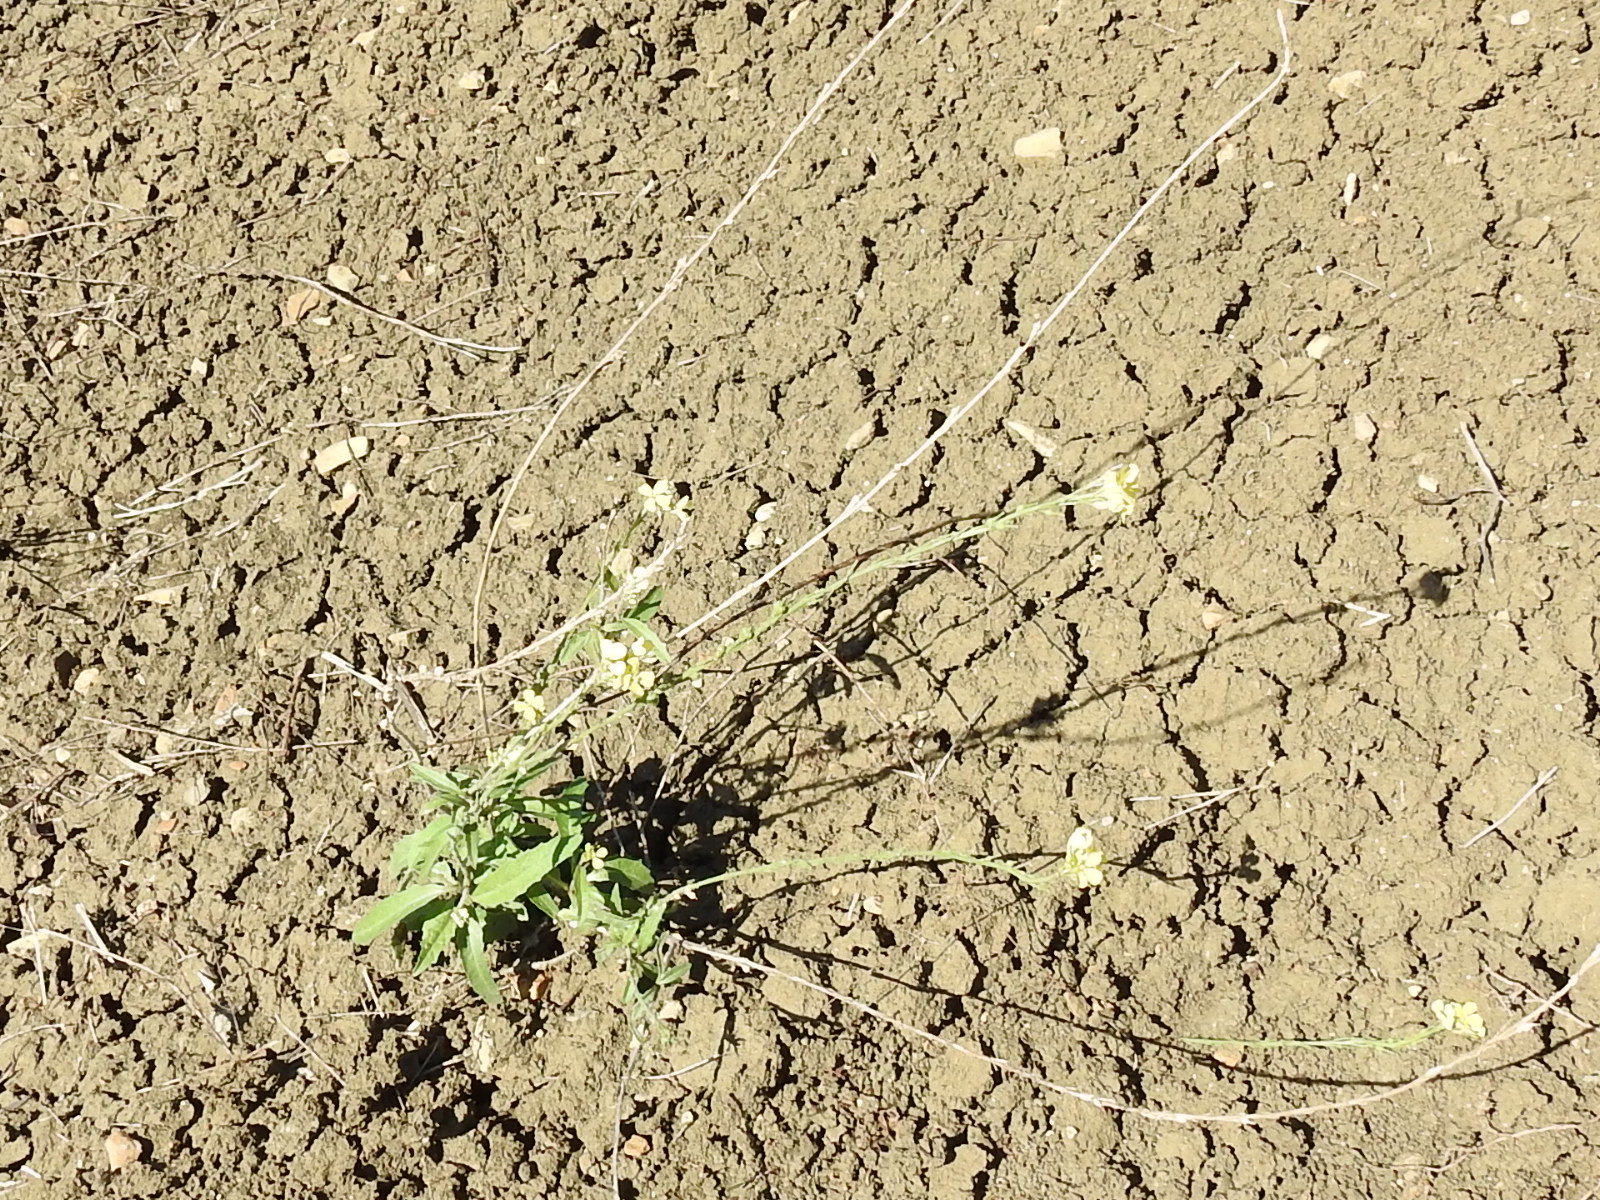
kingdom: Plantae
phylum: Tracheophyta
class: Magnoliopsida
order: Brassicales
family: Brassicaceae
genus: Rapistrum
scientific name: Rapistrum rugosum
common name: Annual bastardcabbage
